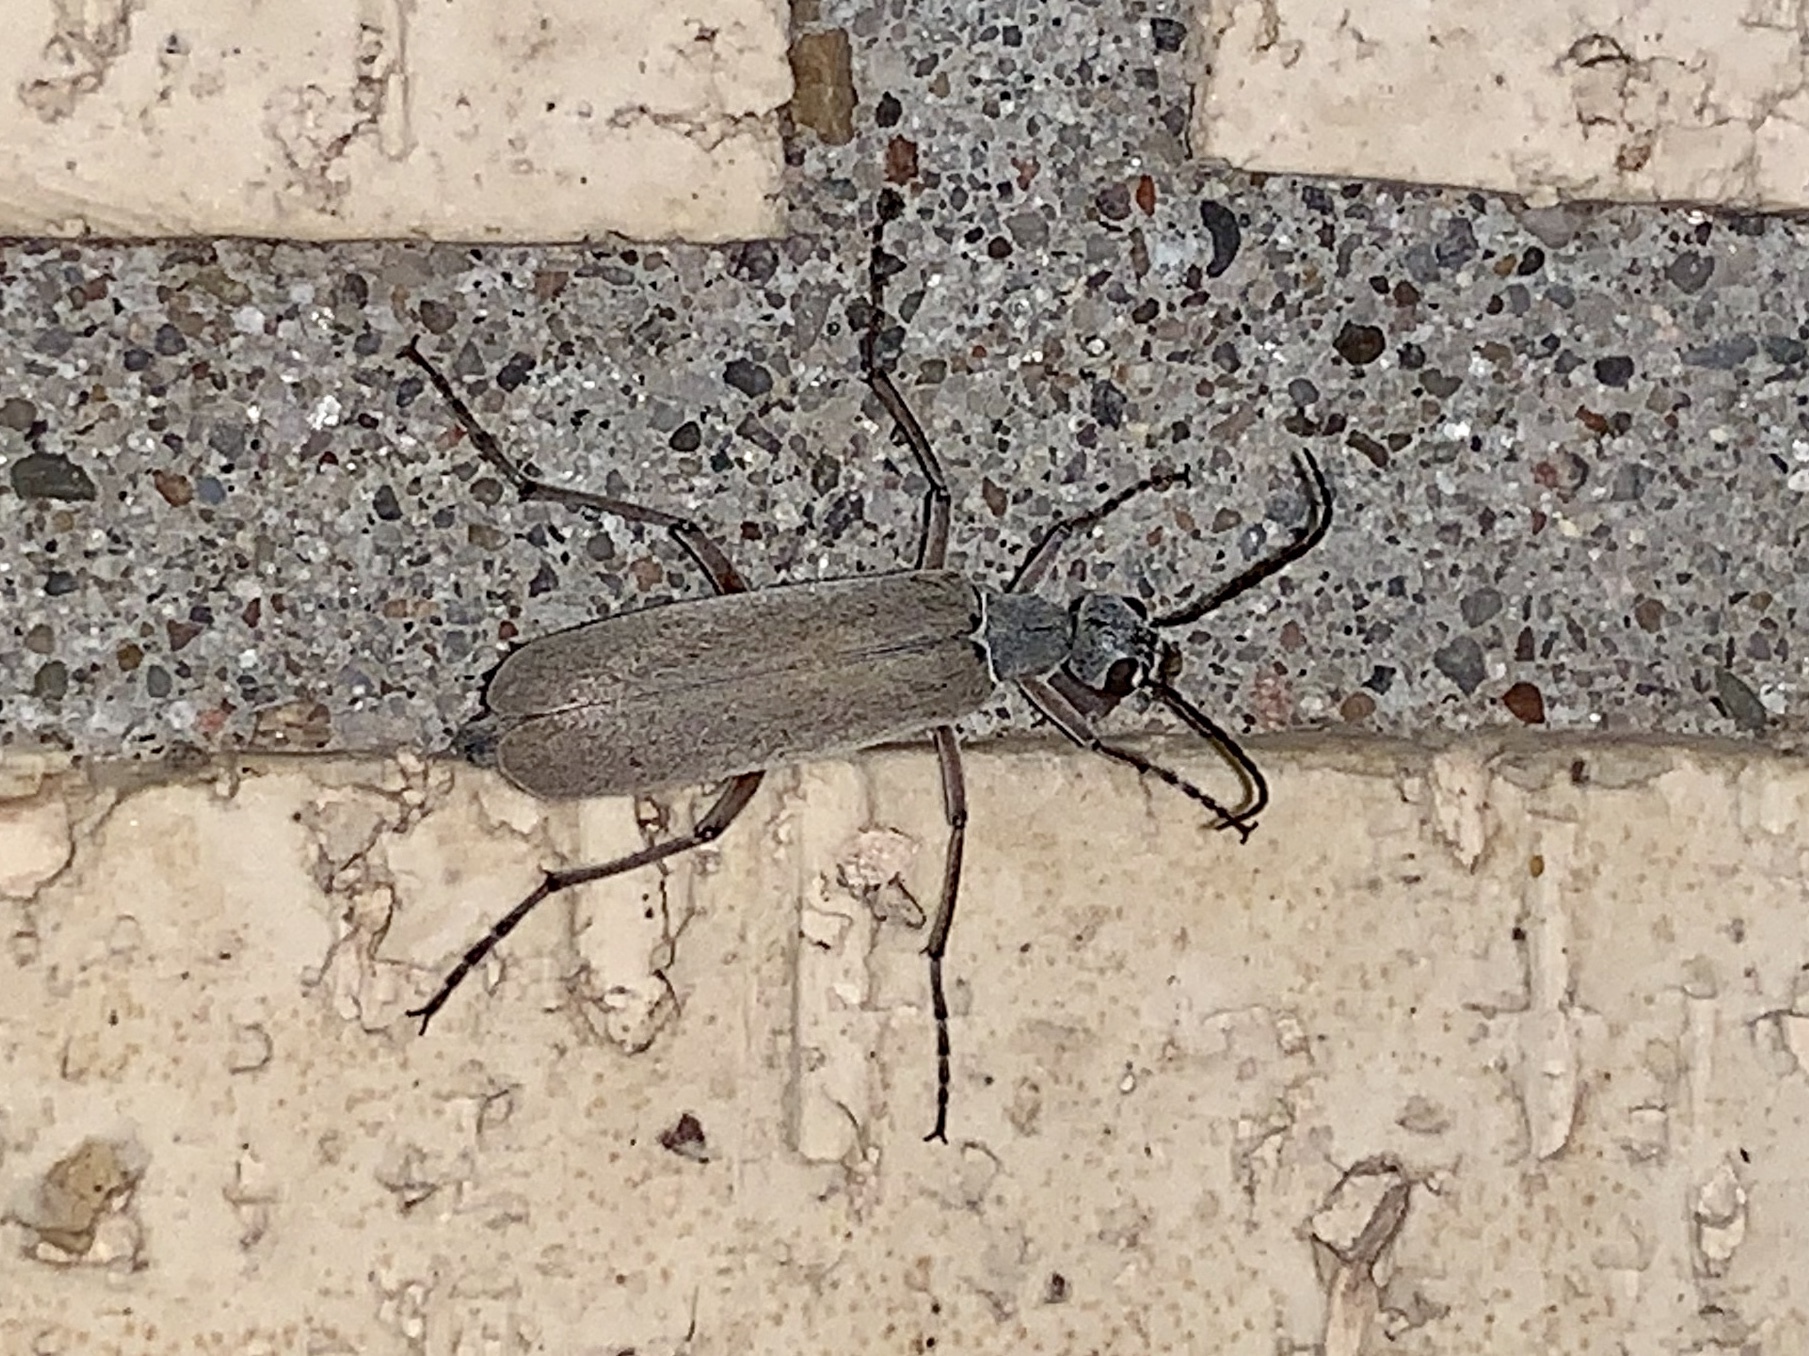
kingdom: Animalia
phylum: Arthropoda
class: Insecta
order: Coleoptera
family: Meloidae
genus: Epicauta
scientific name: Epicauta polingi
